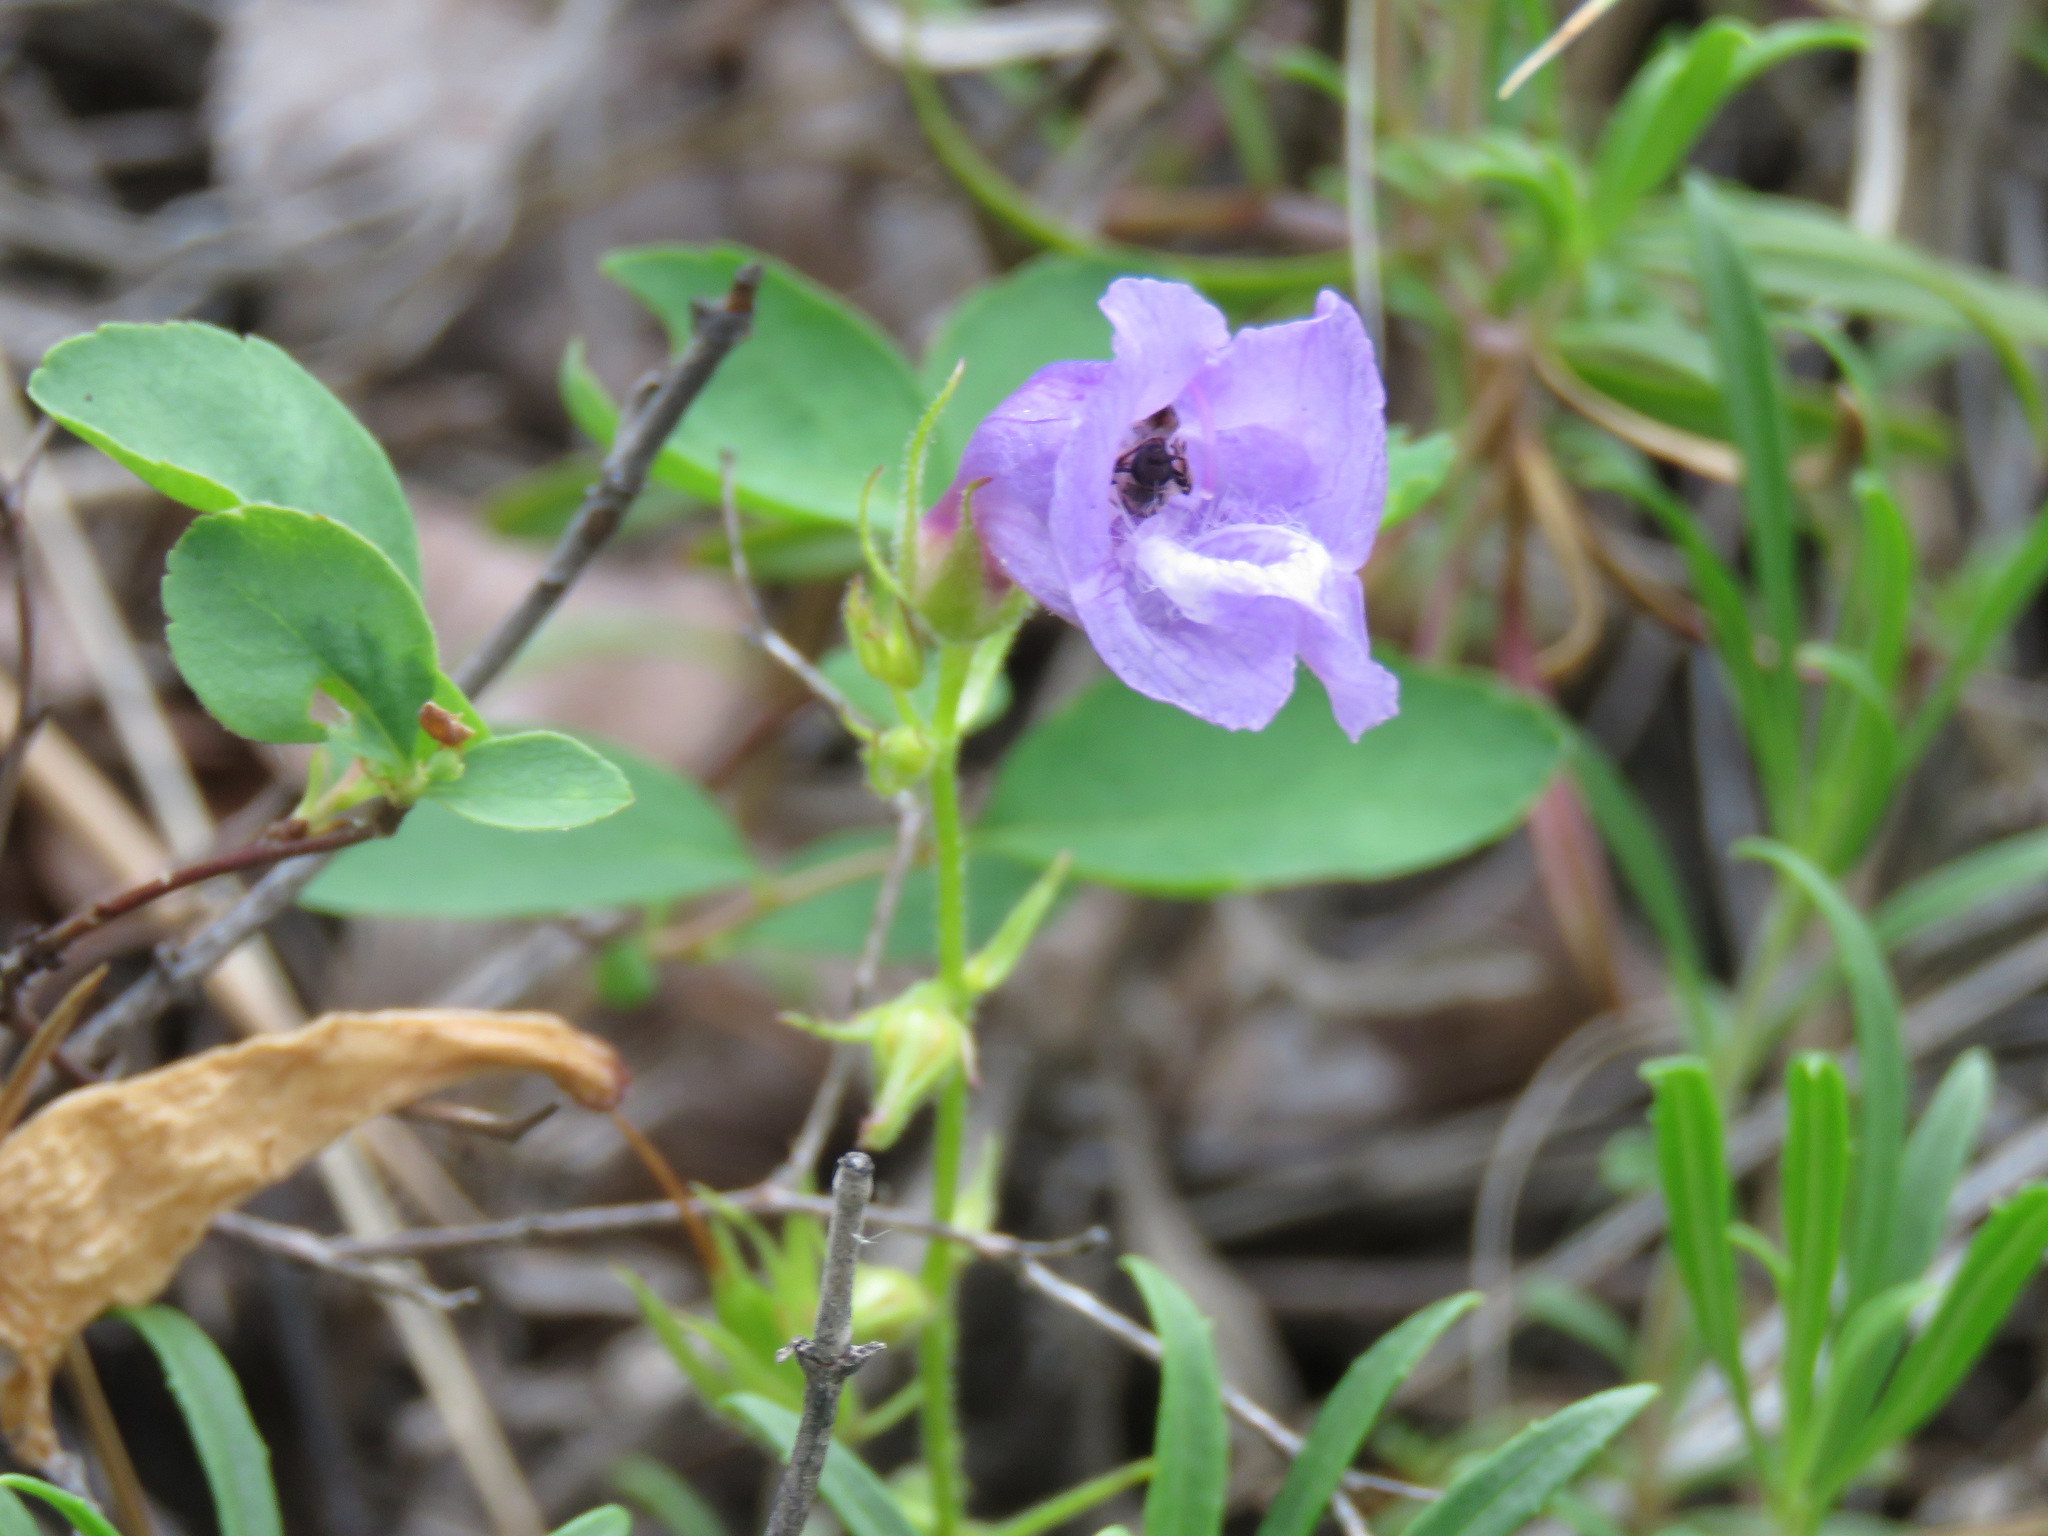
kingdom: Plantae
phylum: Tracheophyta
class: Magnoliopsida
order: Lamiales
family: Plantaginaceae
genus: Penstemon
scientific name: Penstemon fruticosus
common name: Bush penstemon
